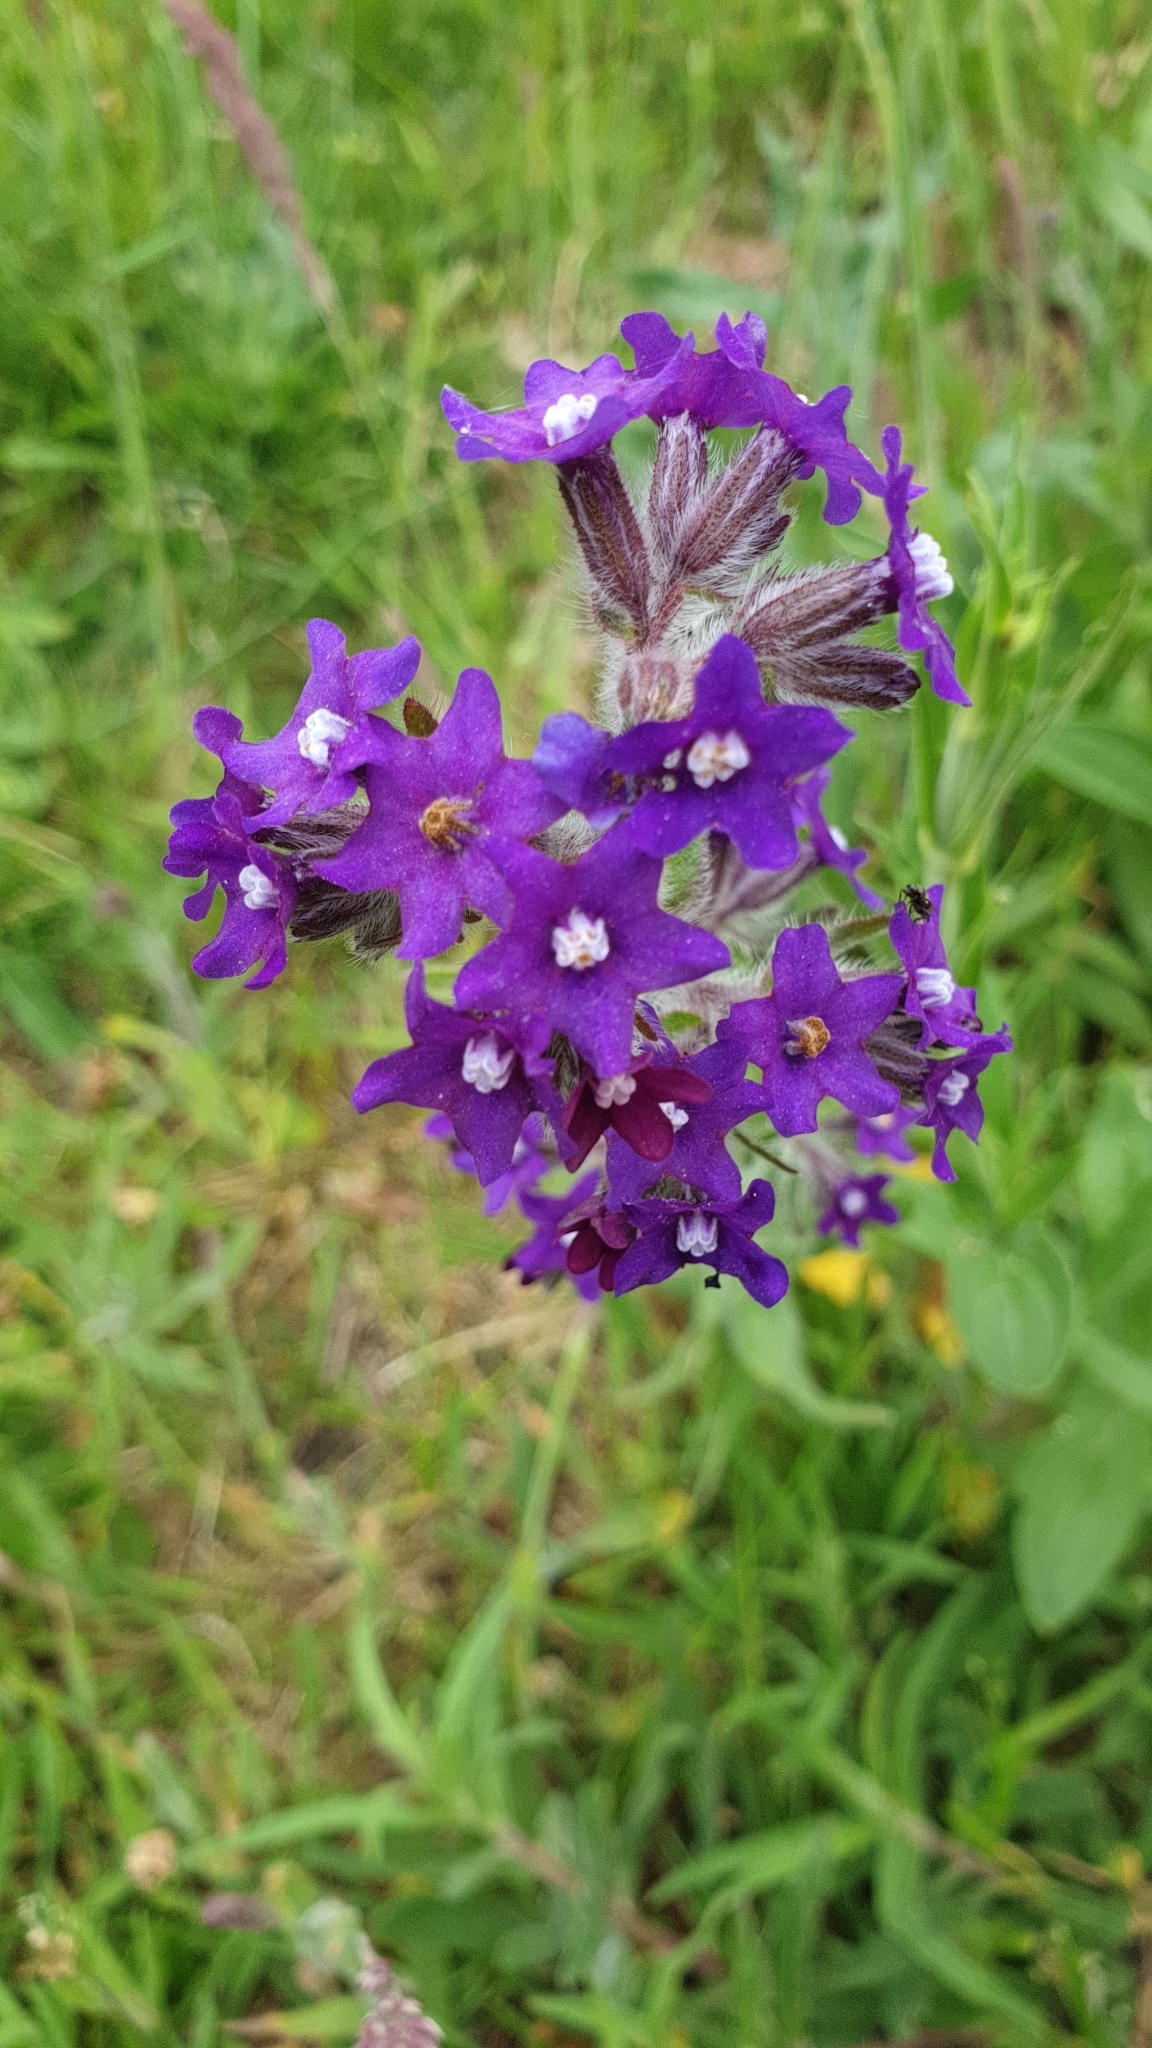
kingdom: Plantae
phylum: Tracheophyta
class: Magnoliopsida
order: Boraginales
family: Boraginaceae
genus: Anchusa
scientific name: Anchusa officinalis
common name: Alkanet
